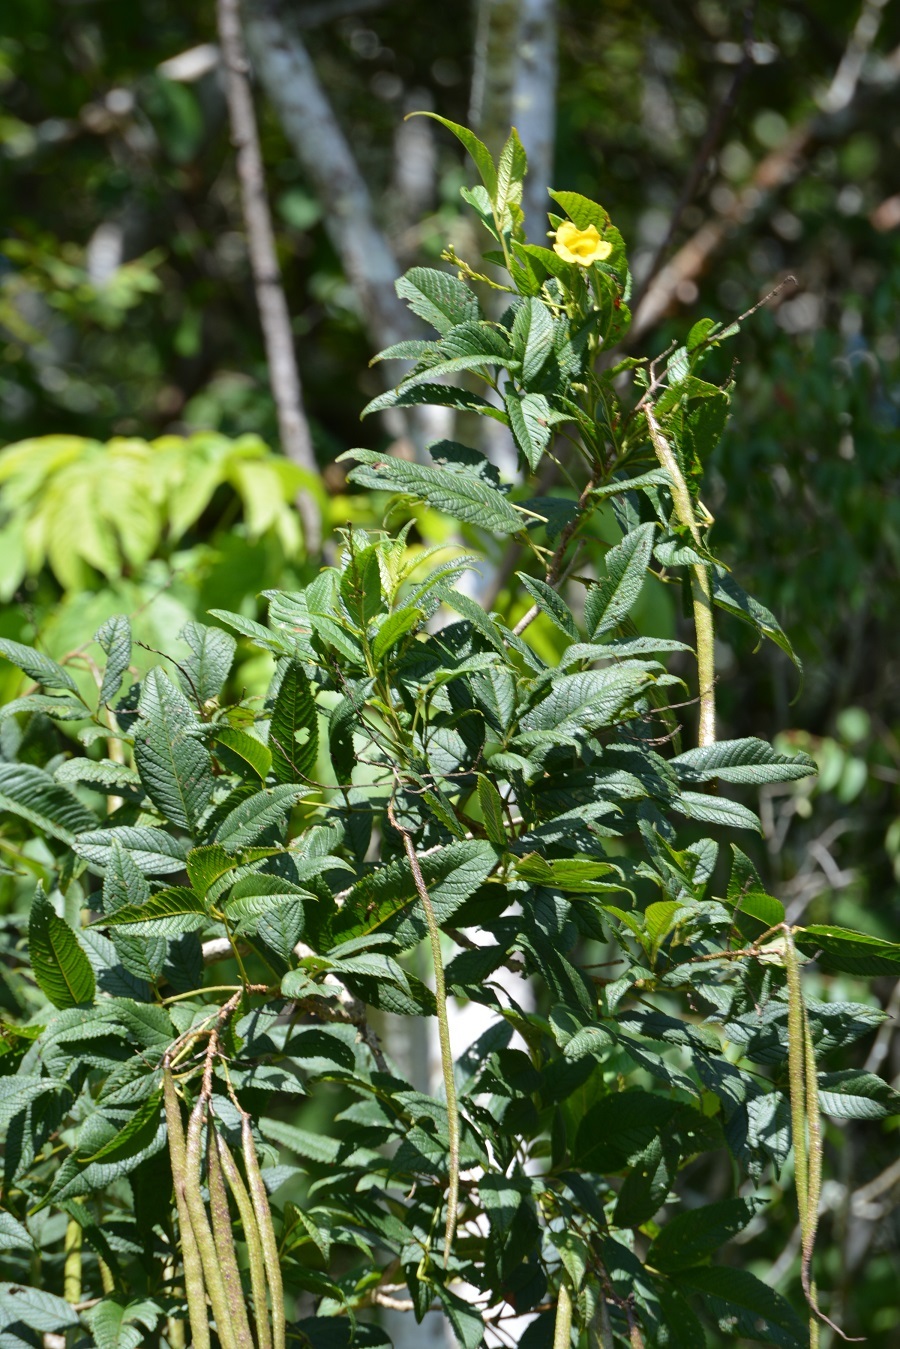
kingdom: Plantae
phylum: Tracheophyta
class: Magnoliopsida
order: Lamiales
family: Bignoniaceae
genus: Tecoma
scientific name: Tecoma stans
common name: Yellow trumpetbush
